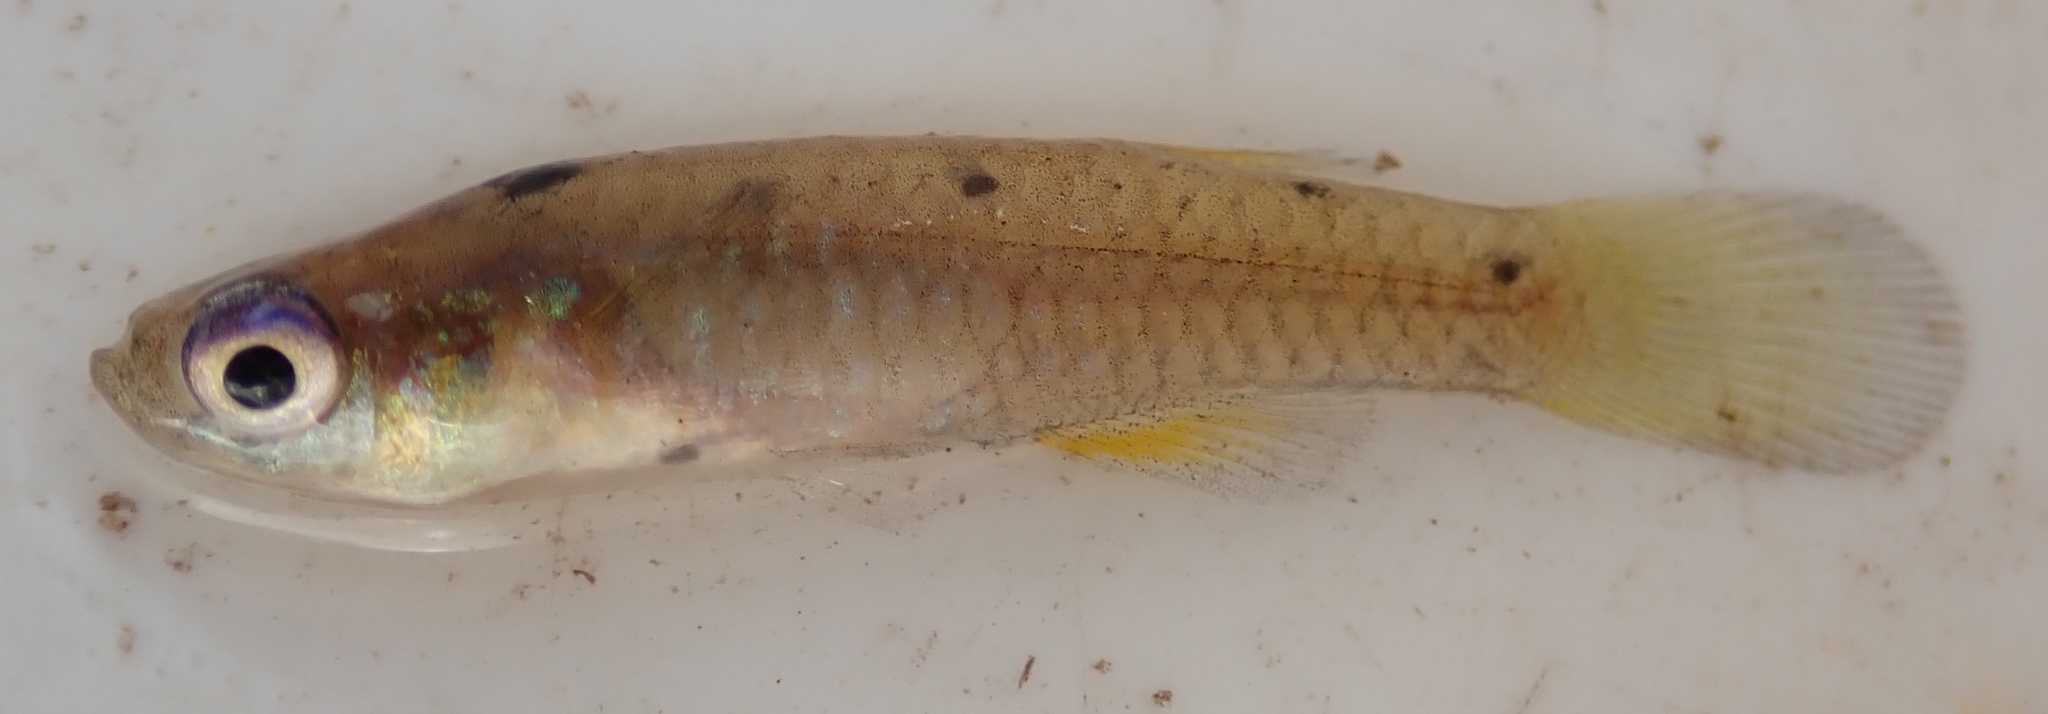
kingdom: Animalia
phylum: Chordata
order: Cyprinodontiformes
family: Poeciliidae
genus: Micropanchax
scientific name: Micropanchax johnstoni
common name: Johnston's topminnow
